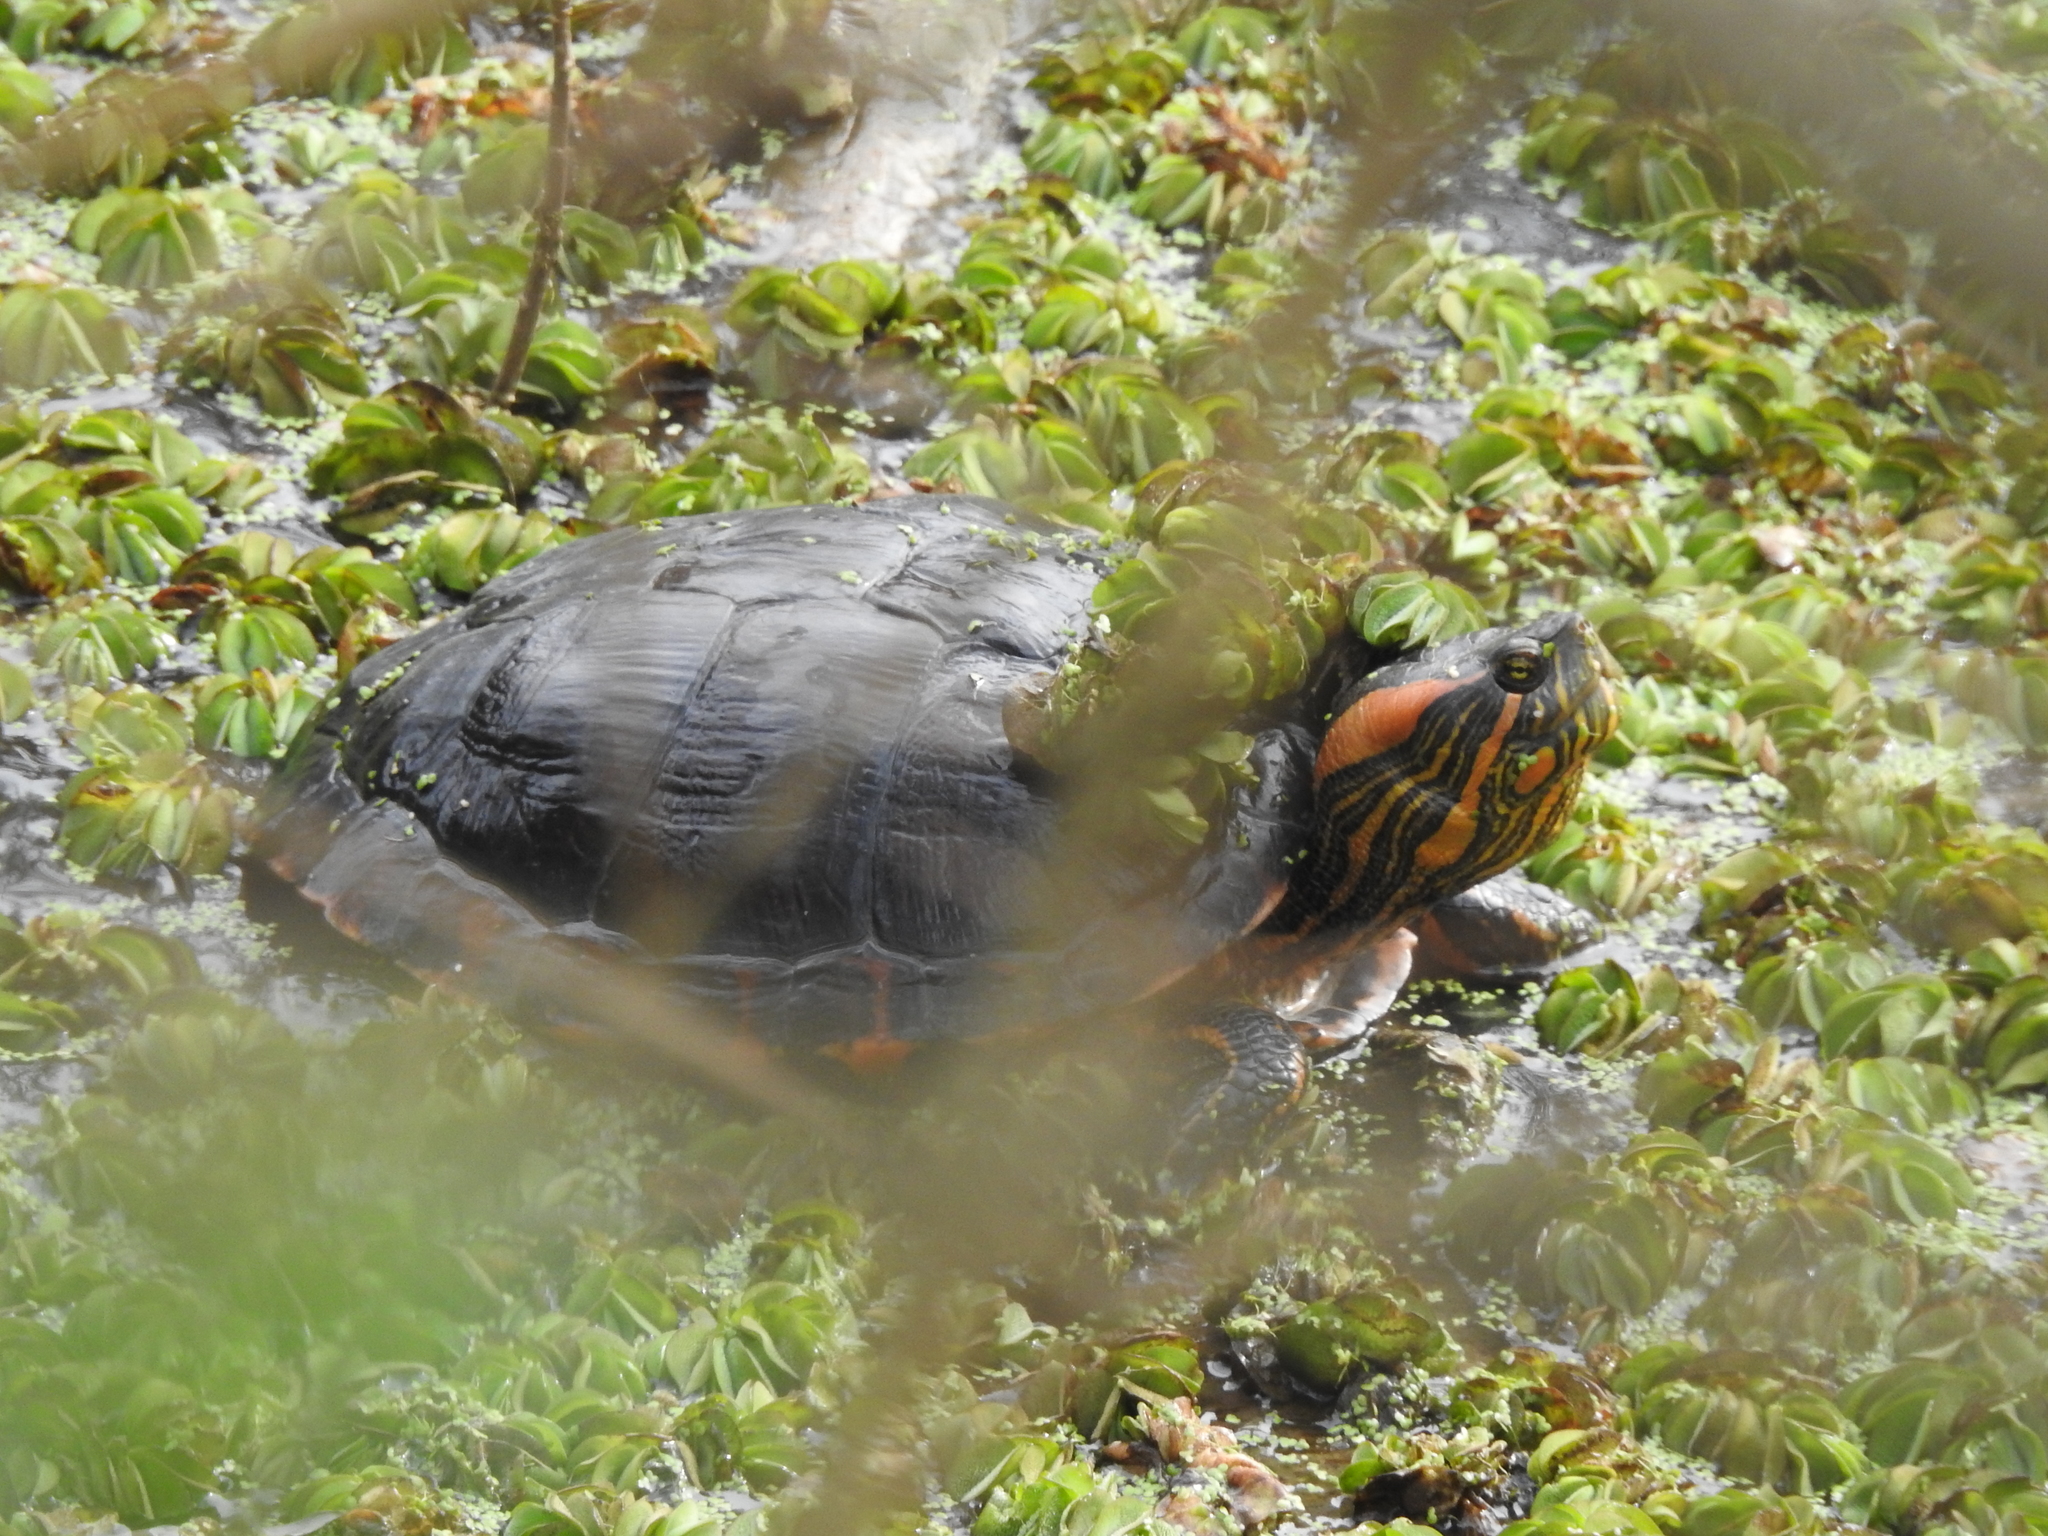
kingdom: Animalia
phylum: Chordata
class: Testudines
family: Emydidae
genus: Trachemys
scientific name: Trachemys dorbigni
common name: Black-bellied slider
